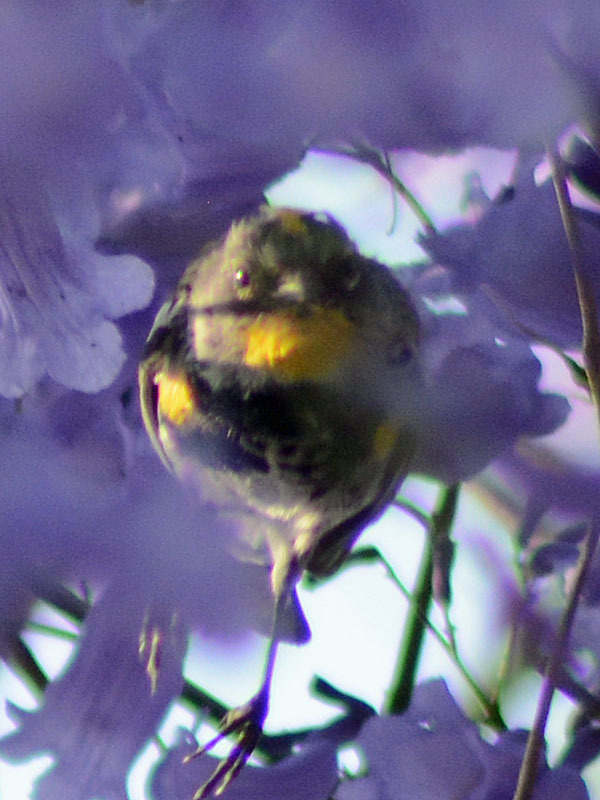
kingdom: Animalia
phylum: Chordata
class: Aves
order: Passeriformes
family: Parulidae
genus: Setophaga
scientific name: Setophaga auduboni
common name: Audubon's warbler
